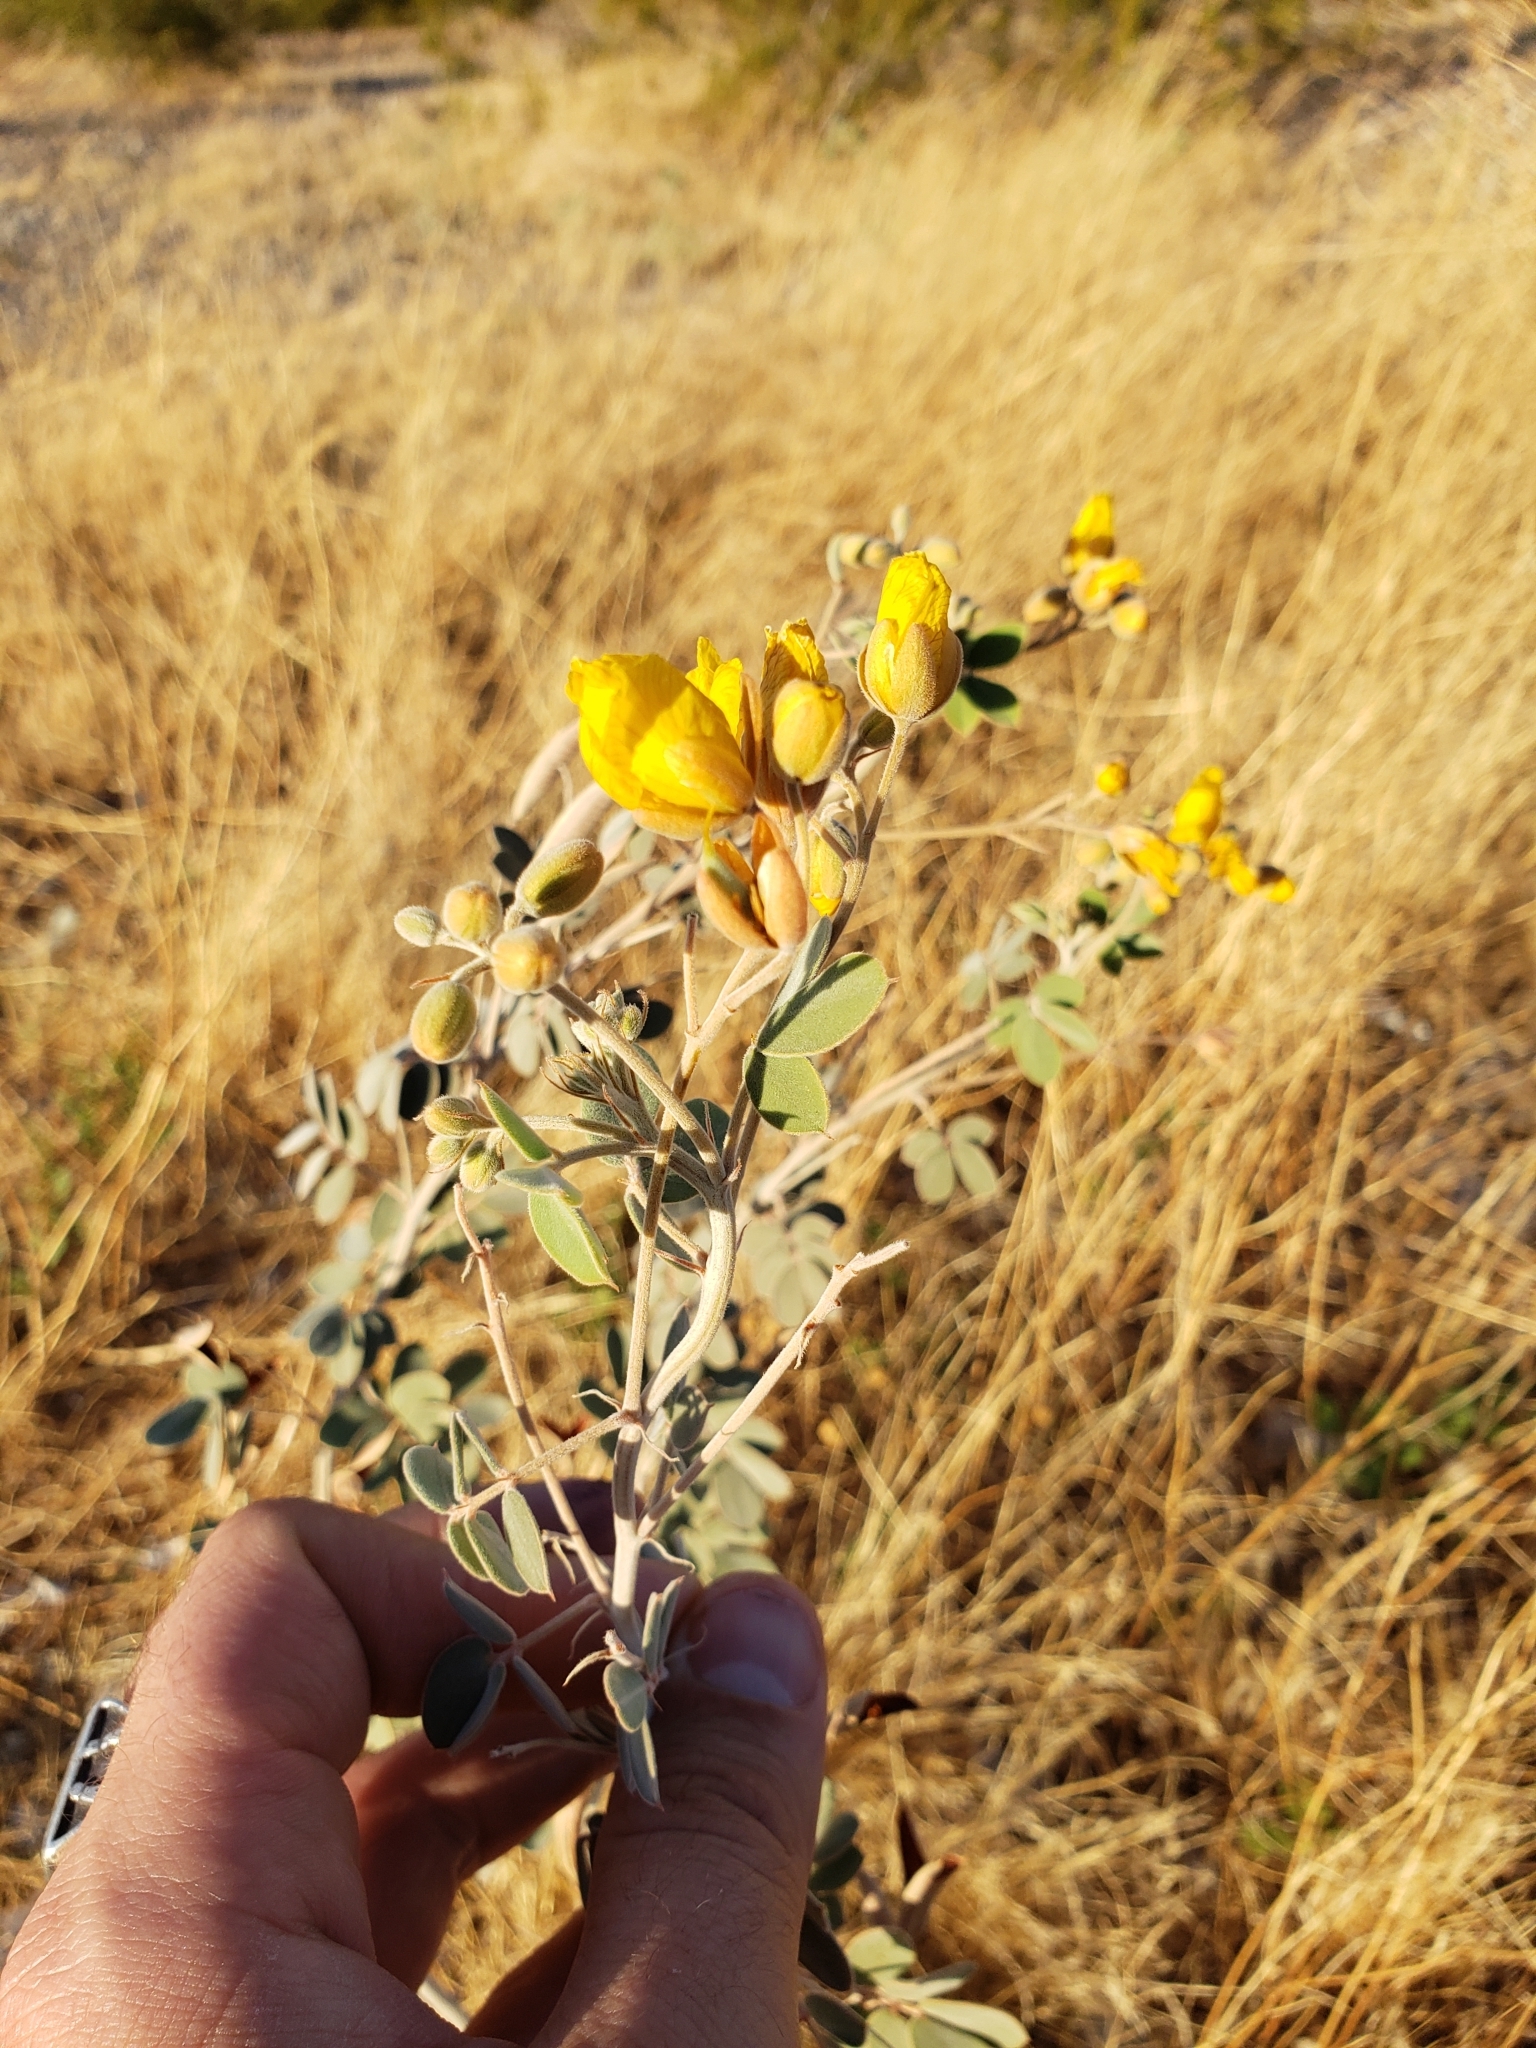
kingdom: Plantae
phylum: Tracheophyta
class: Magnoliopsida
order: Fabales
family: Fabaceae
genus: Senna
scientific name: Senna covesii
